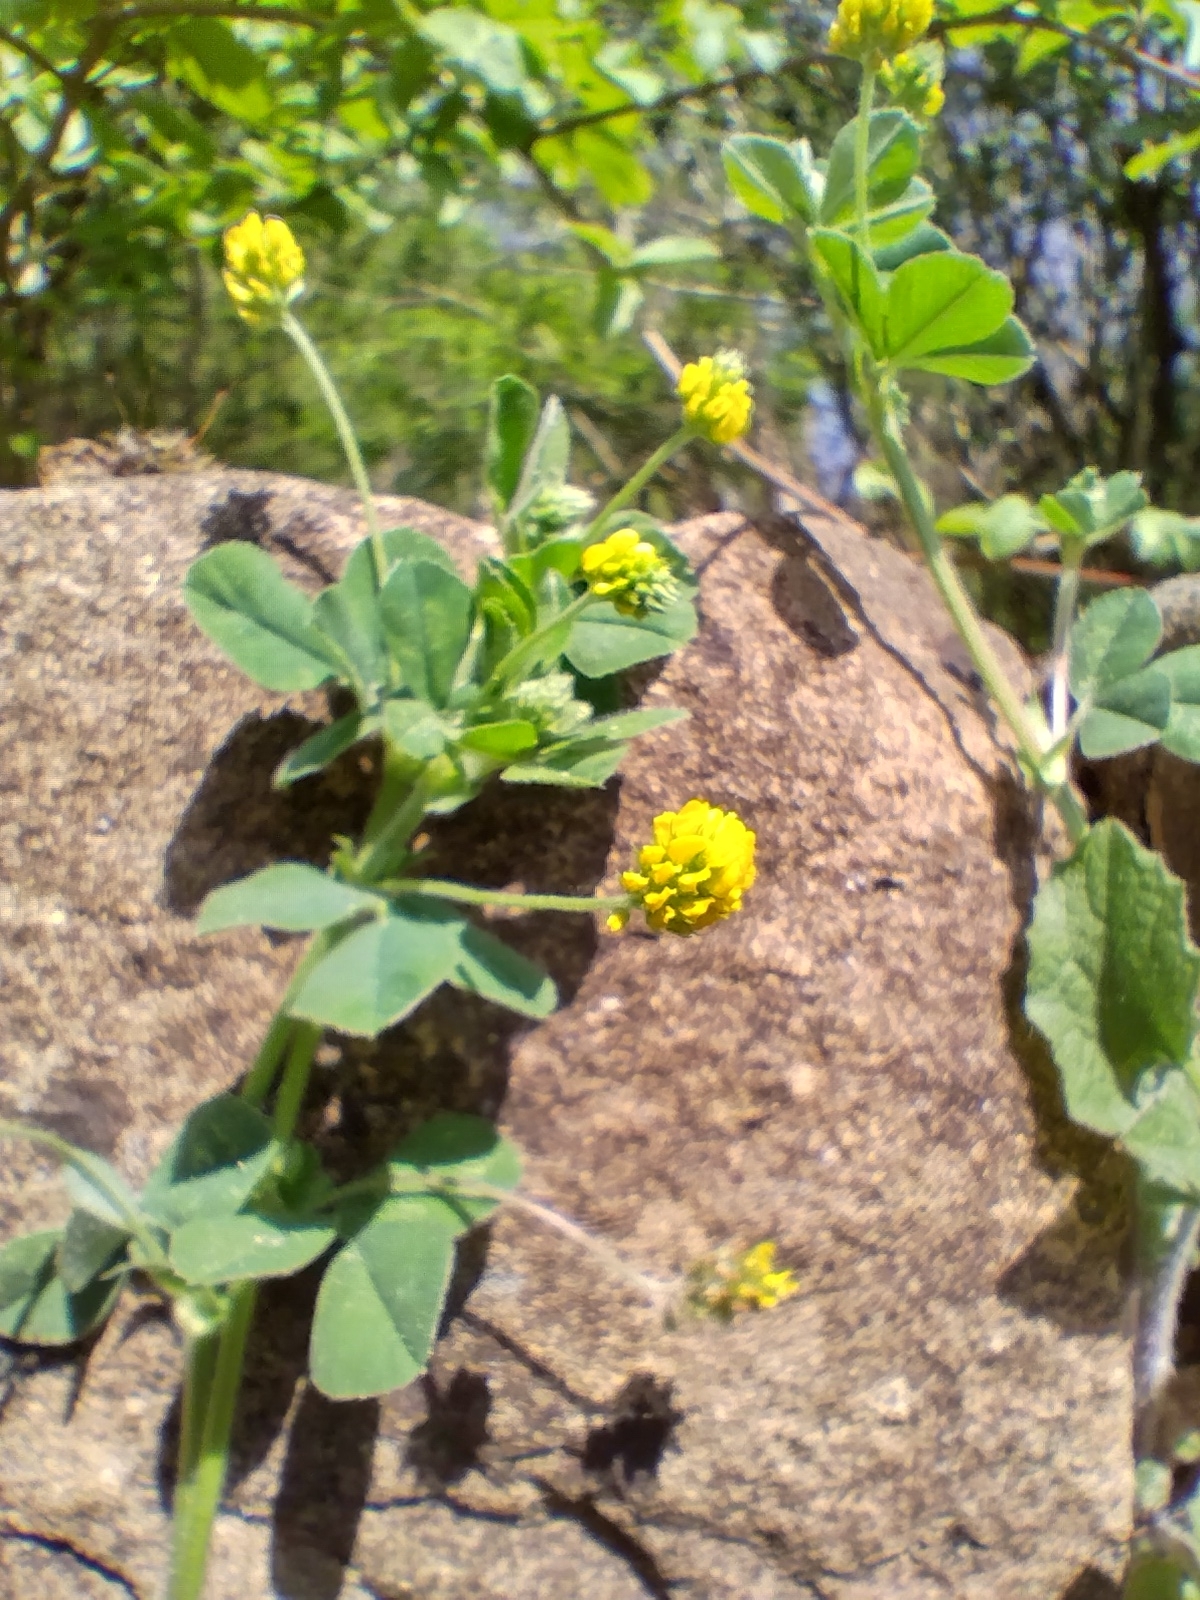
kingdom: Plantae
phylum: Tracheophyta
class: Magnoliopsida
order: Fabales
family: Fabaceae
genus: Medicago
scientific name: Medicago lupulina
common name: Black medick
